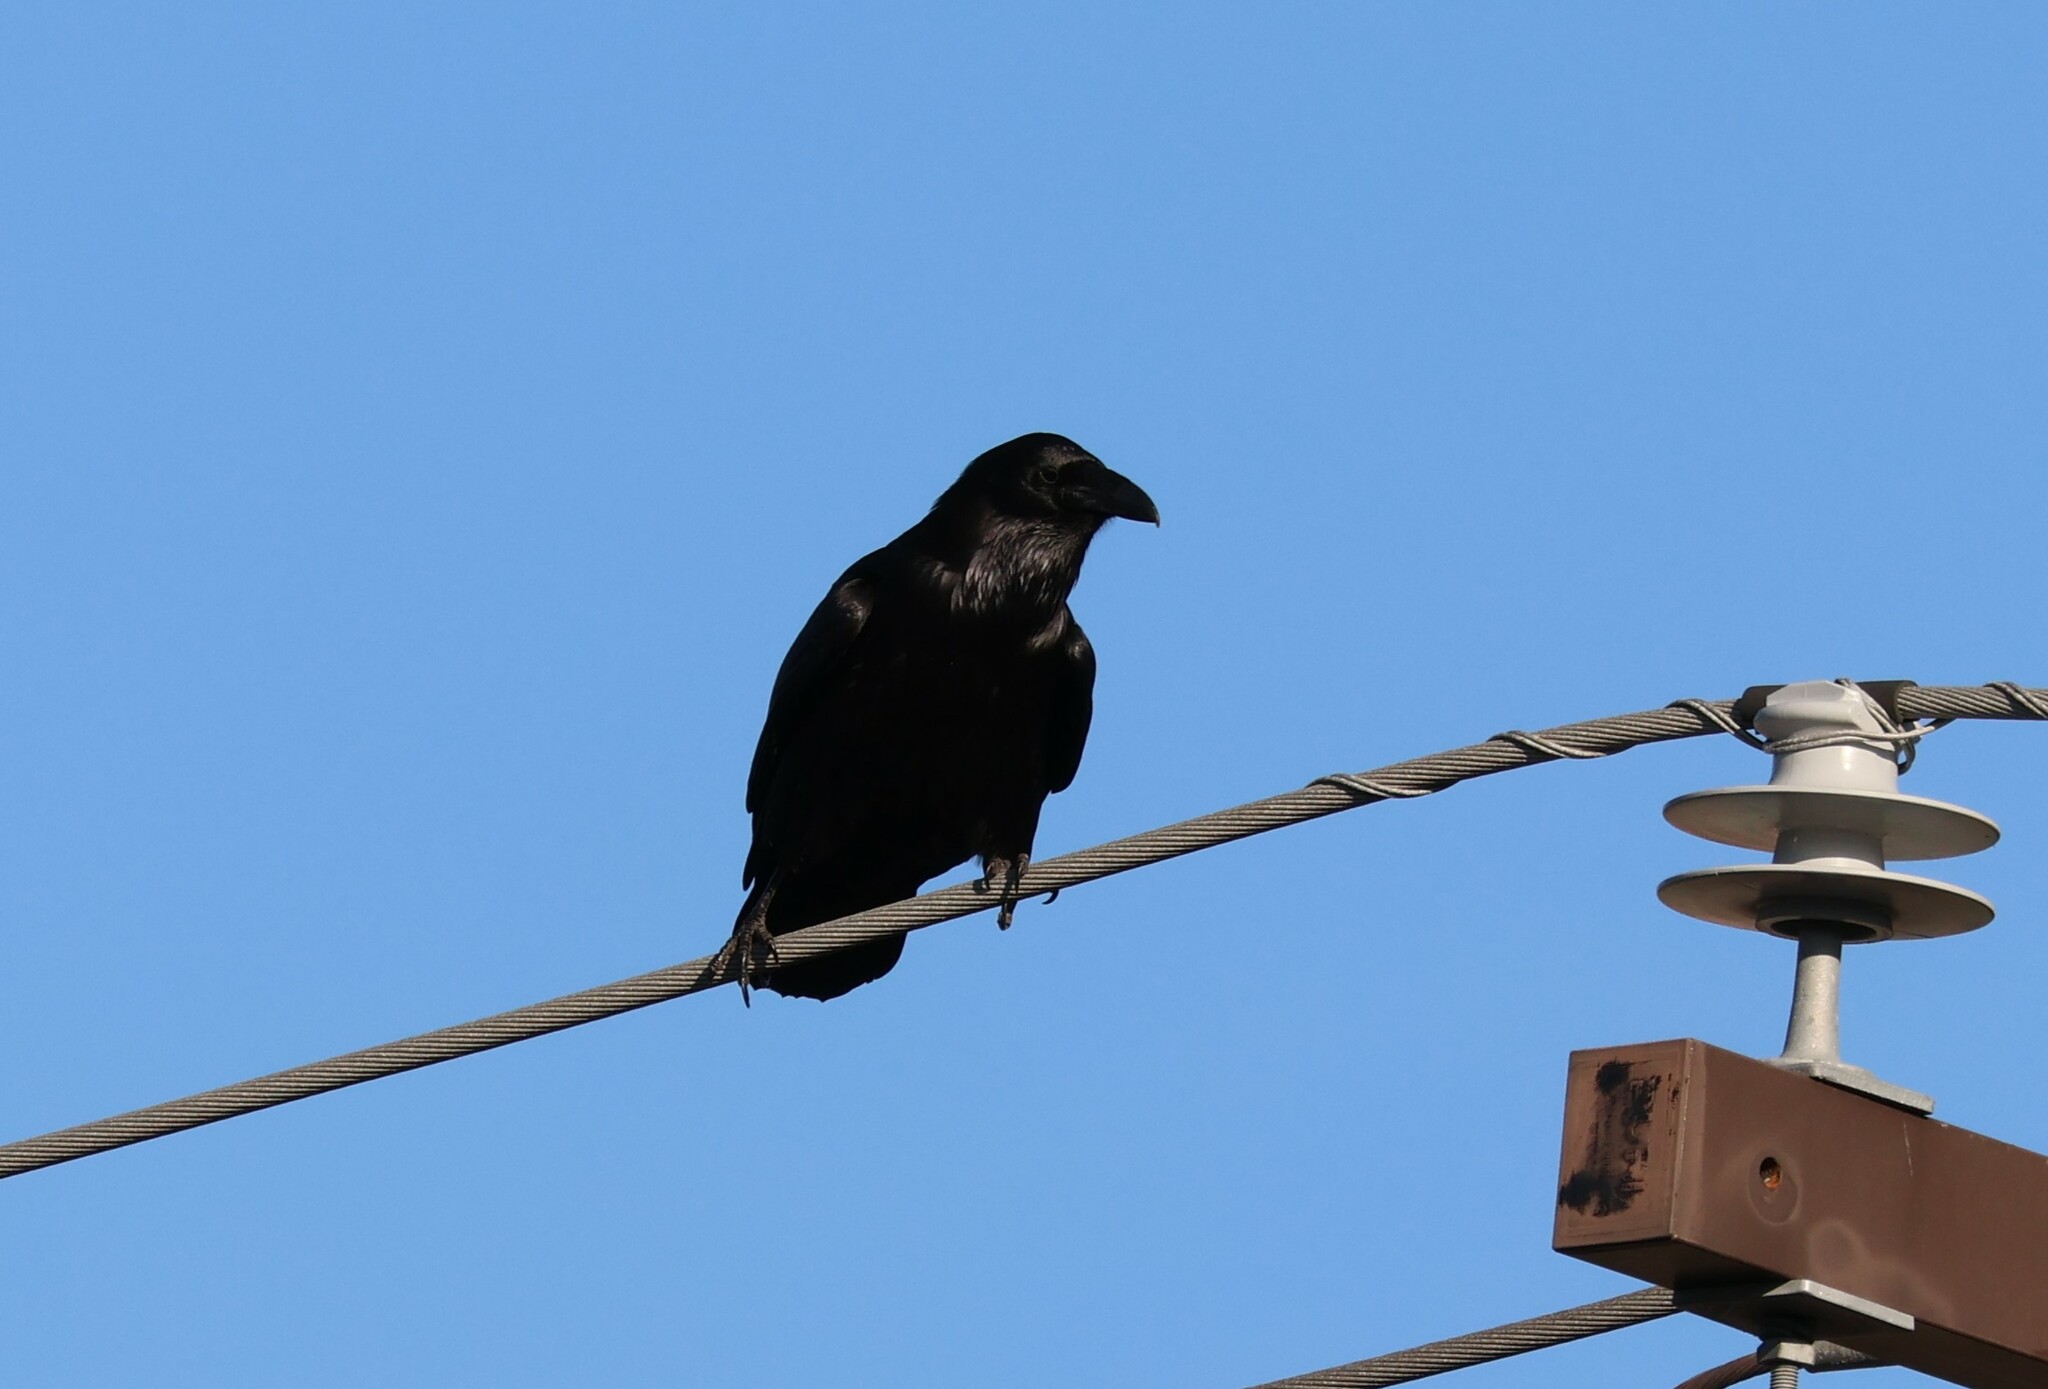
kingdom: Animalia
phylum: Chordata
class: Aves
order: Passeriformes
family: Corvidae
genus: Corvus
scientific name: Corvus corax
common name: Common raven
